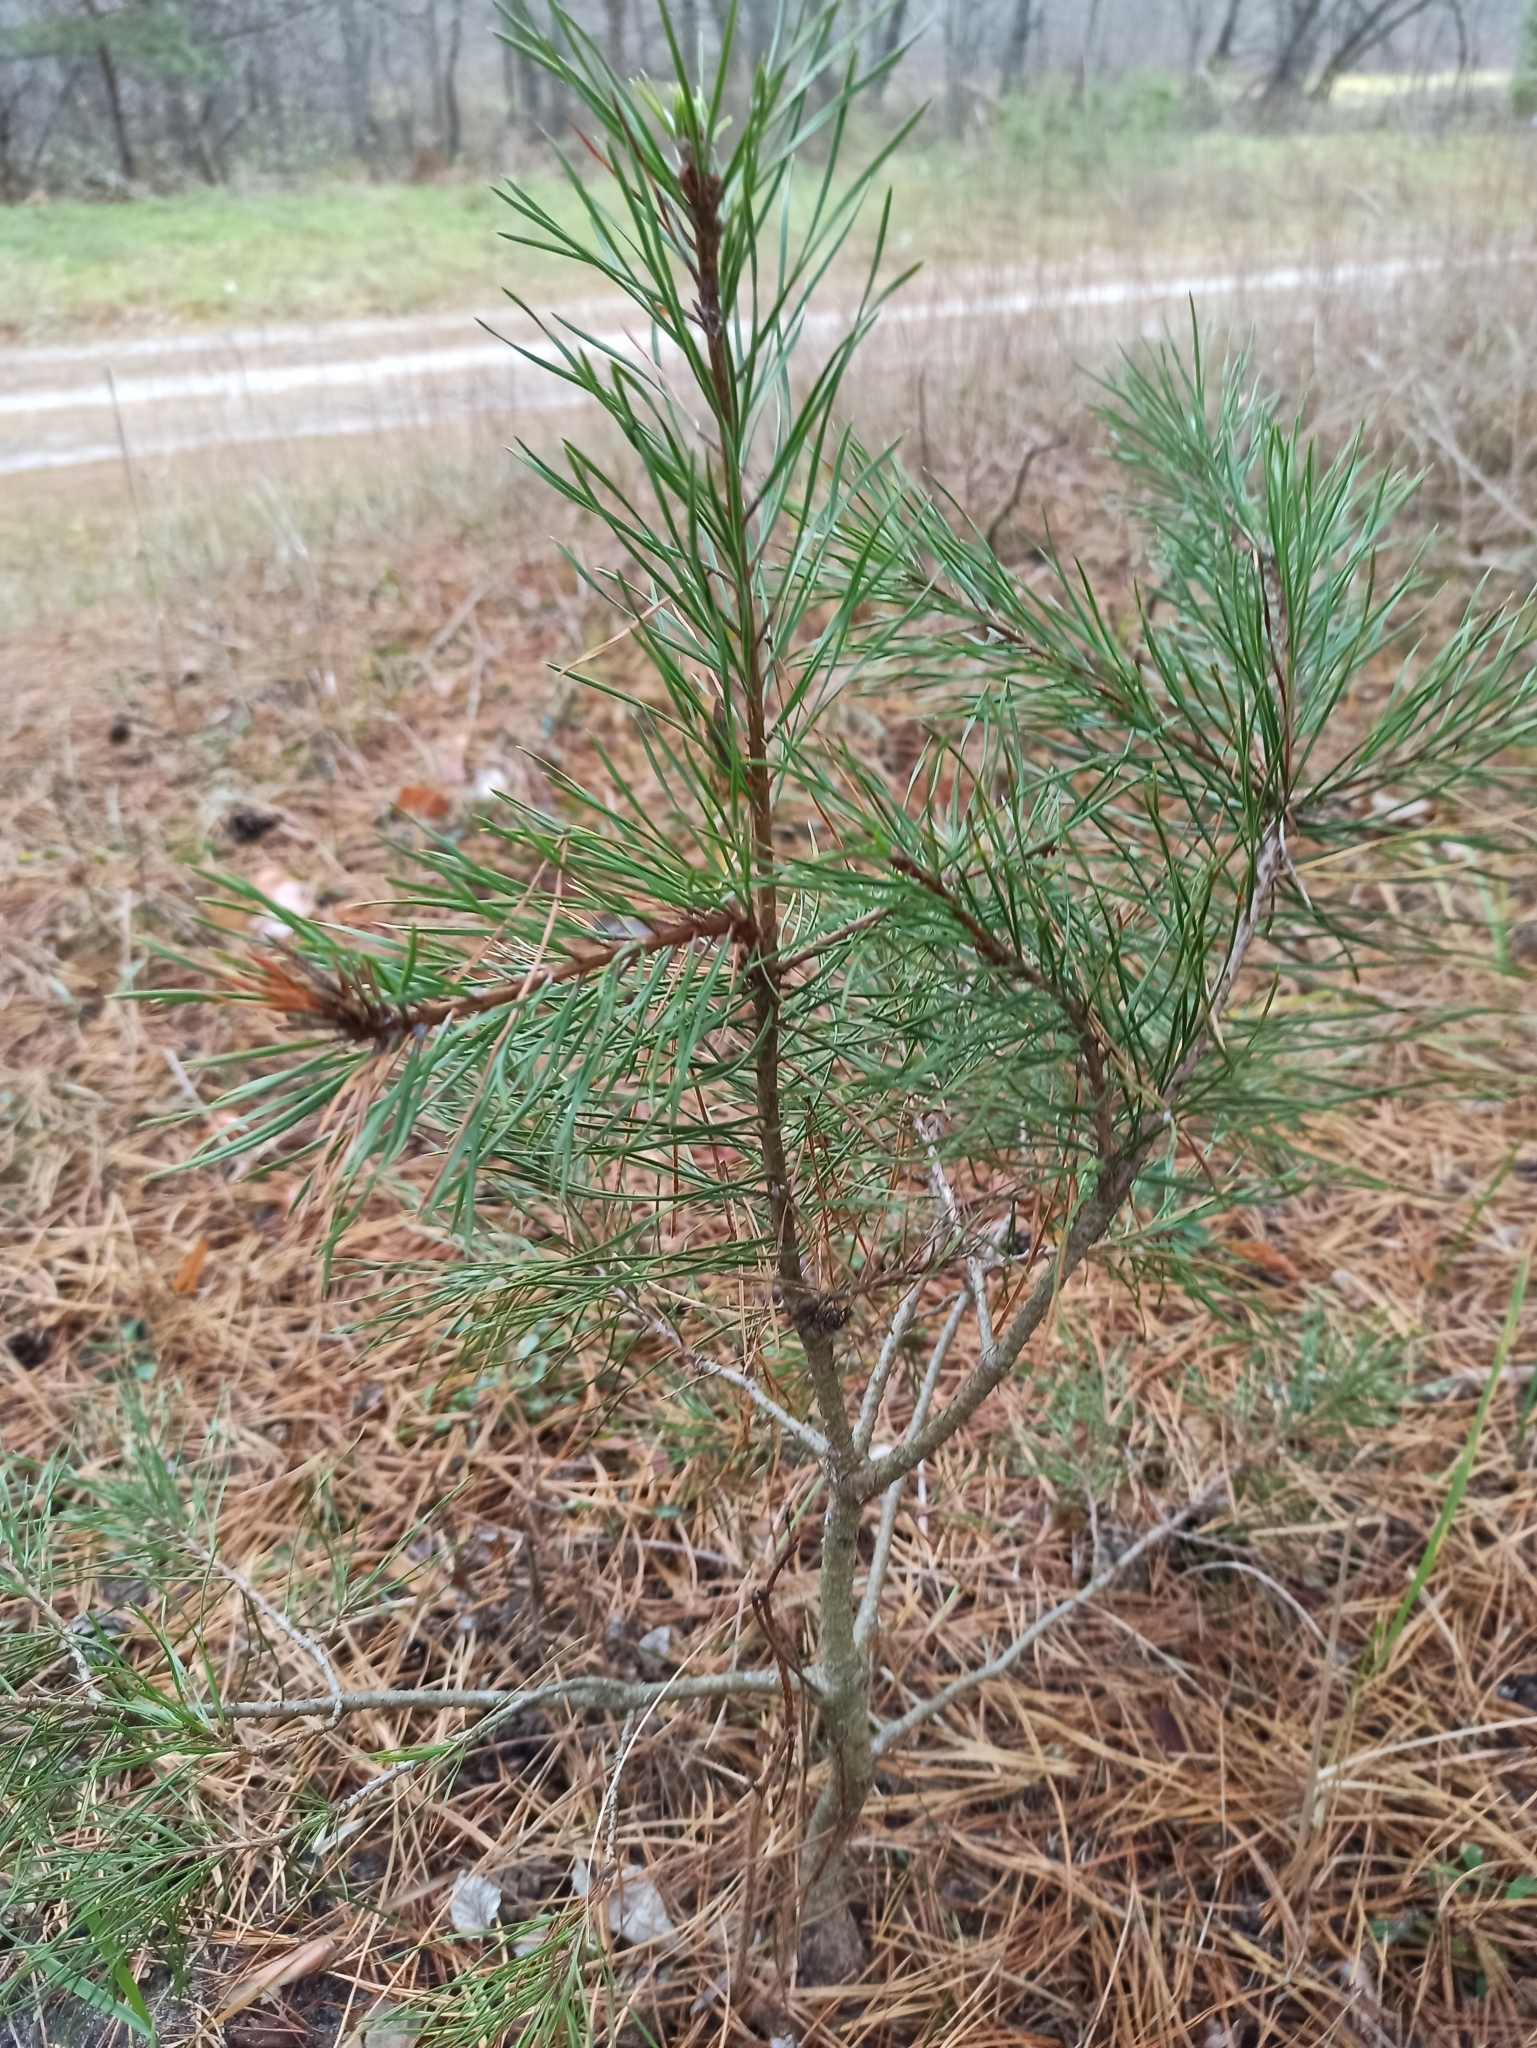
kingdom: Plantae
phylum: Tracheophyta
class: Pinopsida
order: Pinales
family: Pinaceae
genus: Pinus
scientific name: Pinus sylvestris
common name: Scots pine
